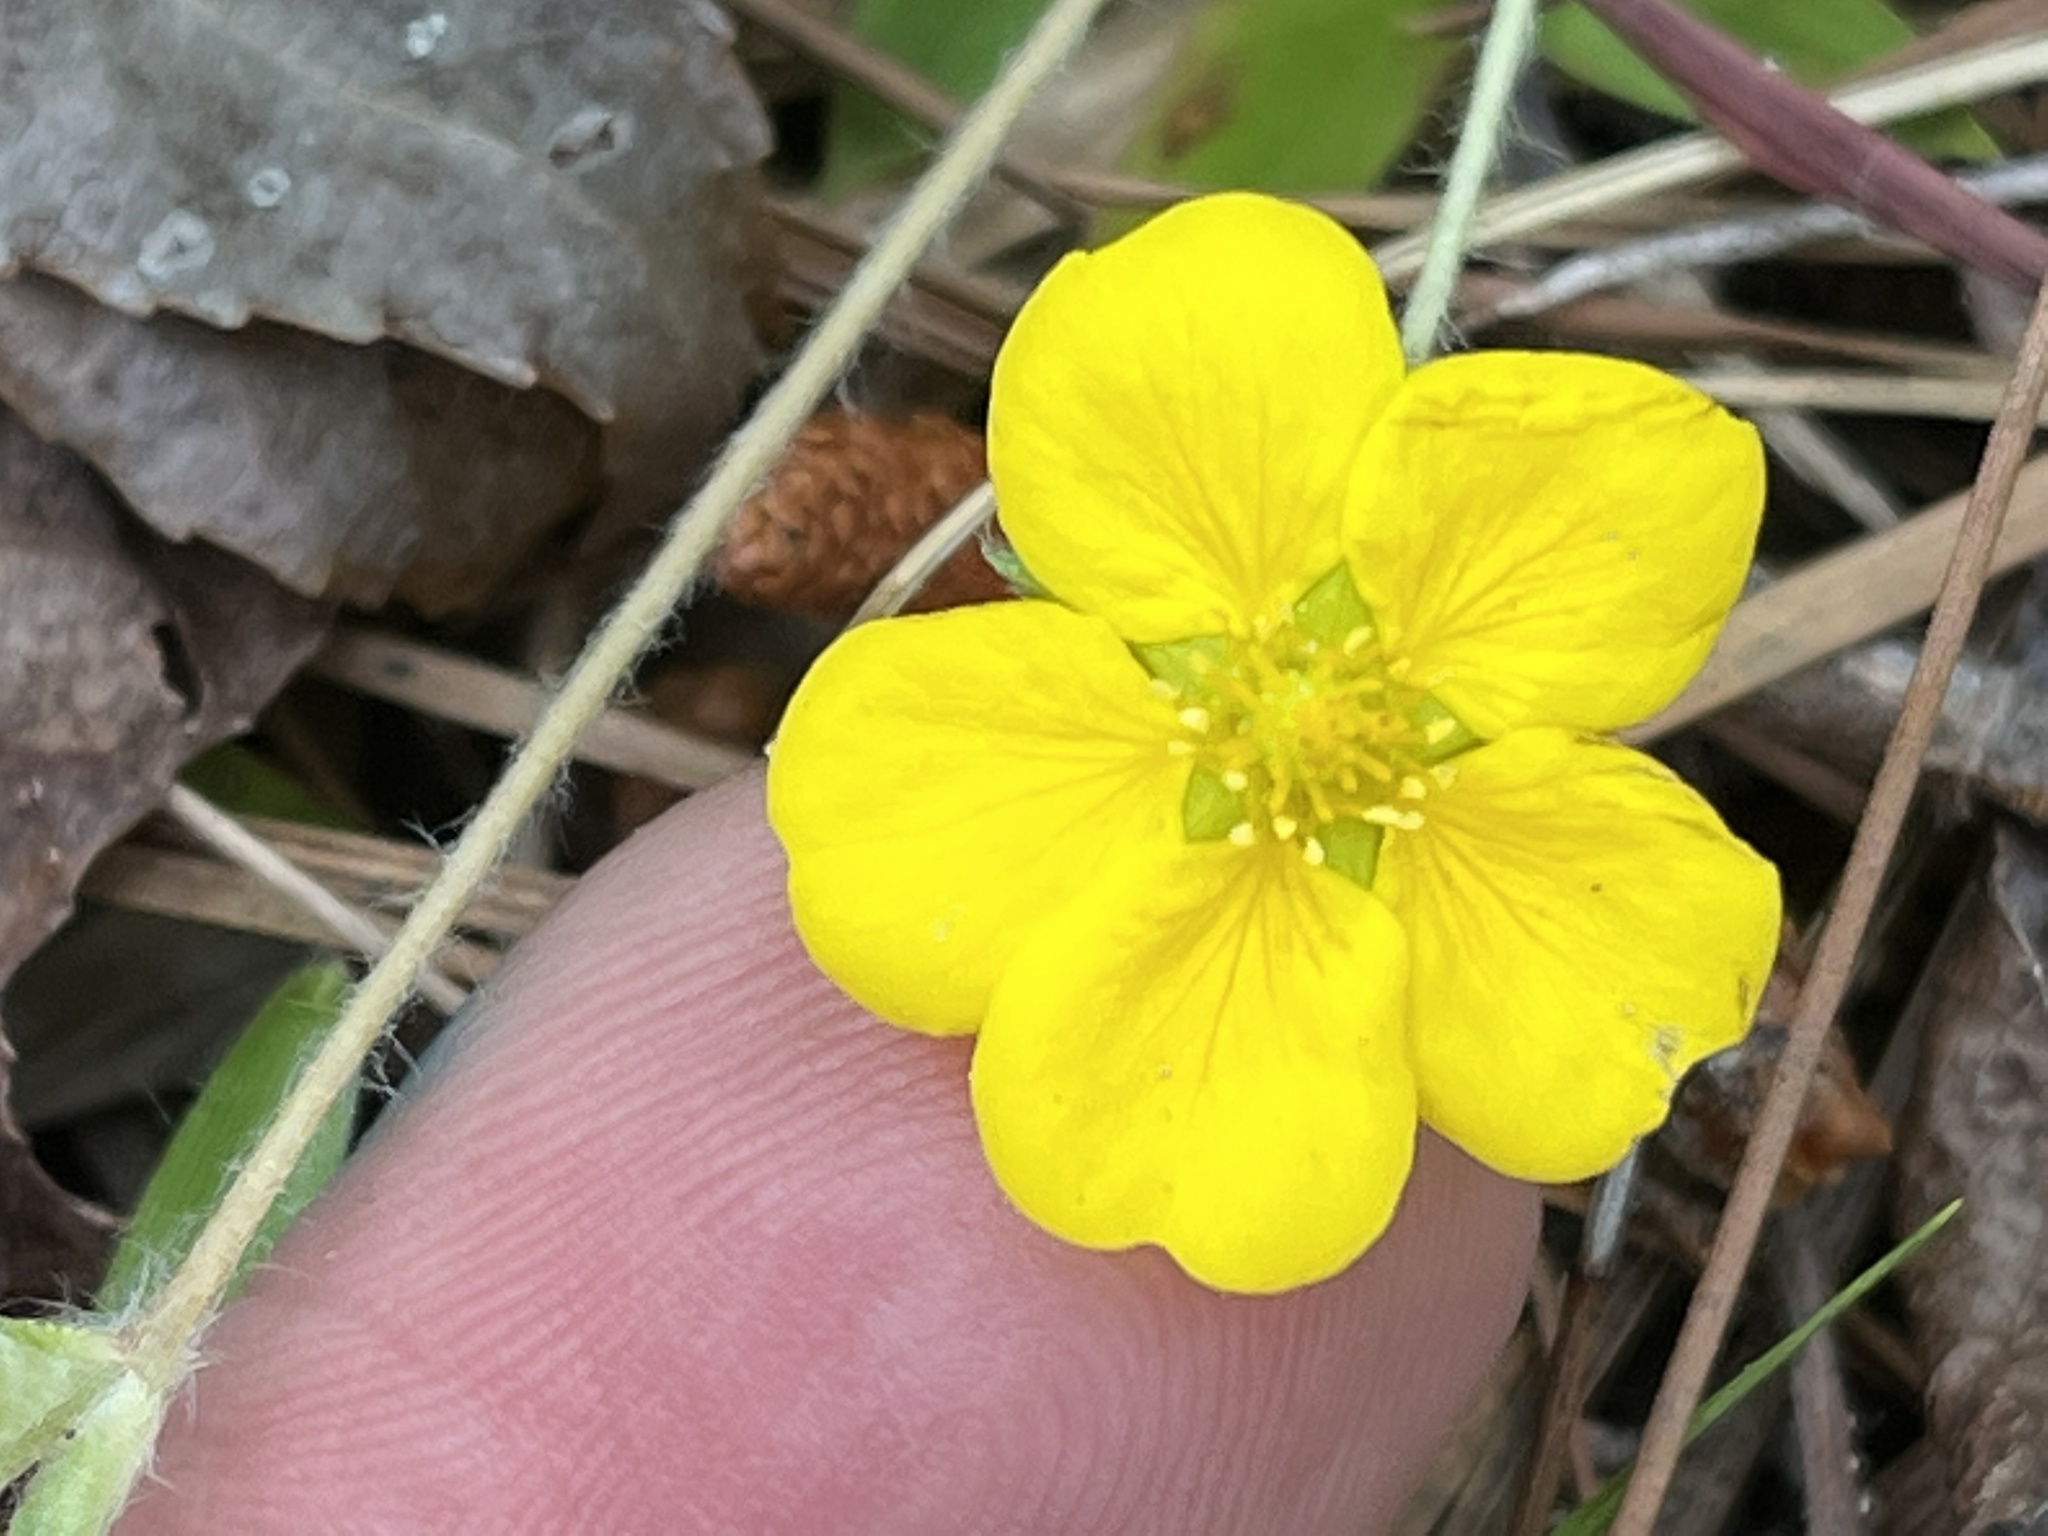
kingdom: Plantae
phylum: Tracheophyta
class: Magnoliopsida
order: Rosales
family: Rosaceae
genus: Potentilla
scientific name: Potentilla canadensis
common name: Canada cinquefoil
